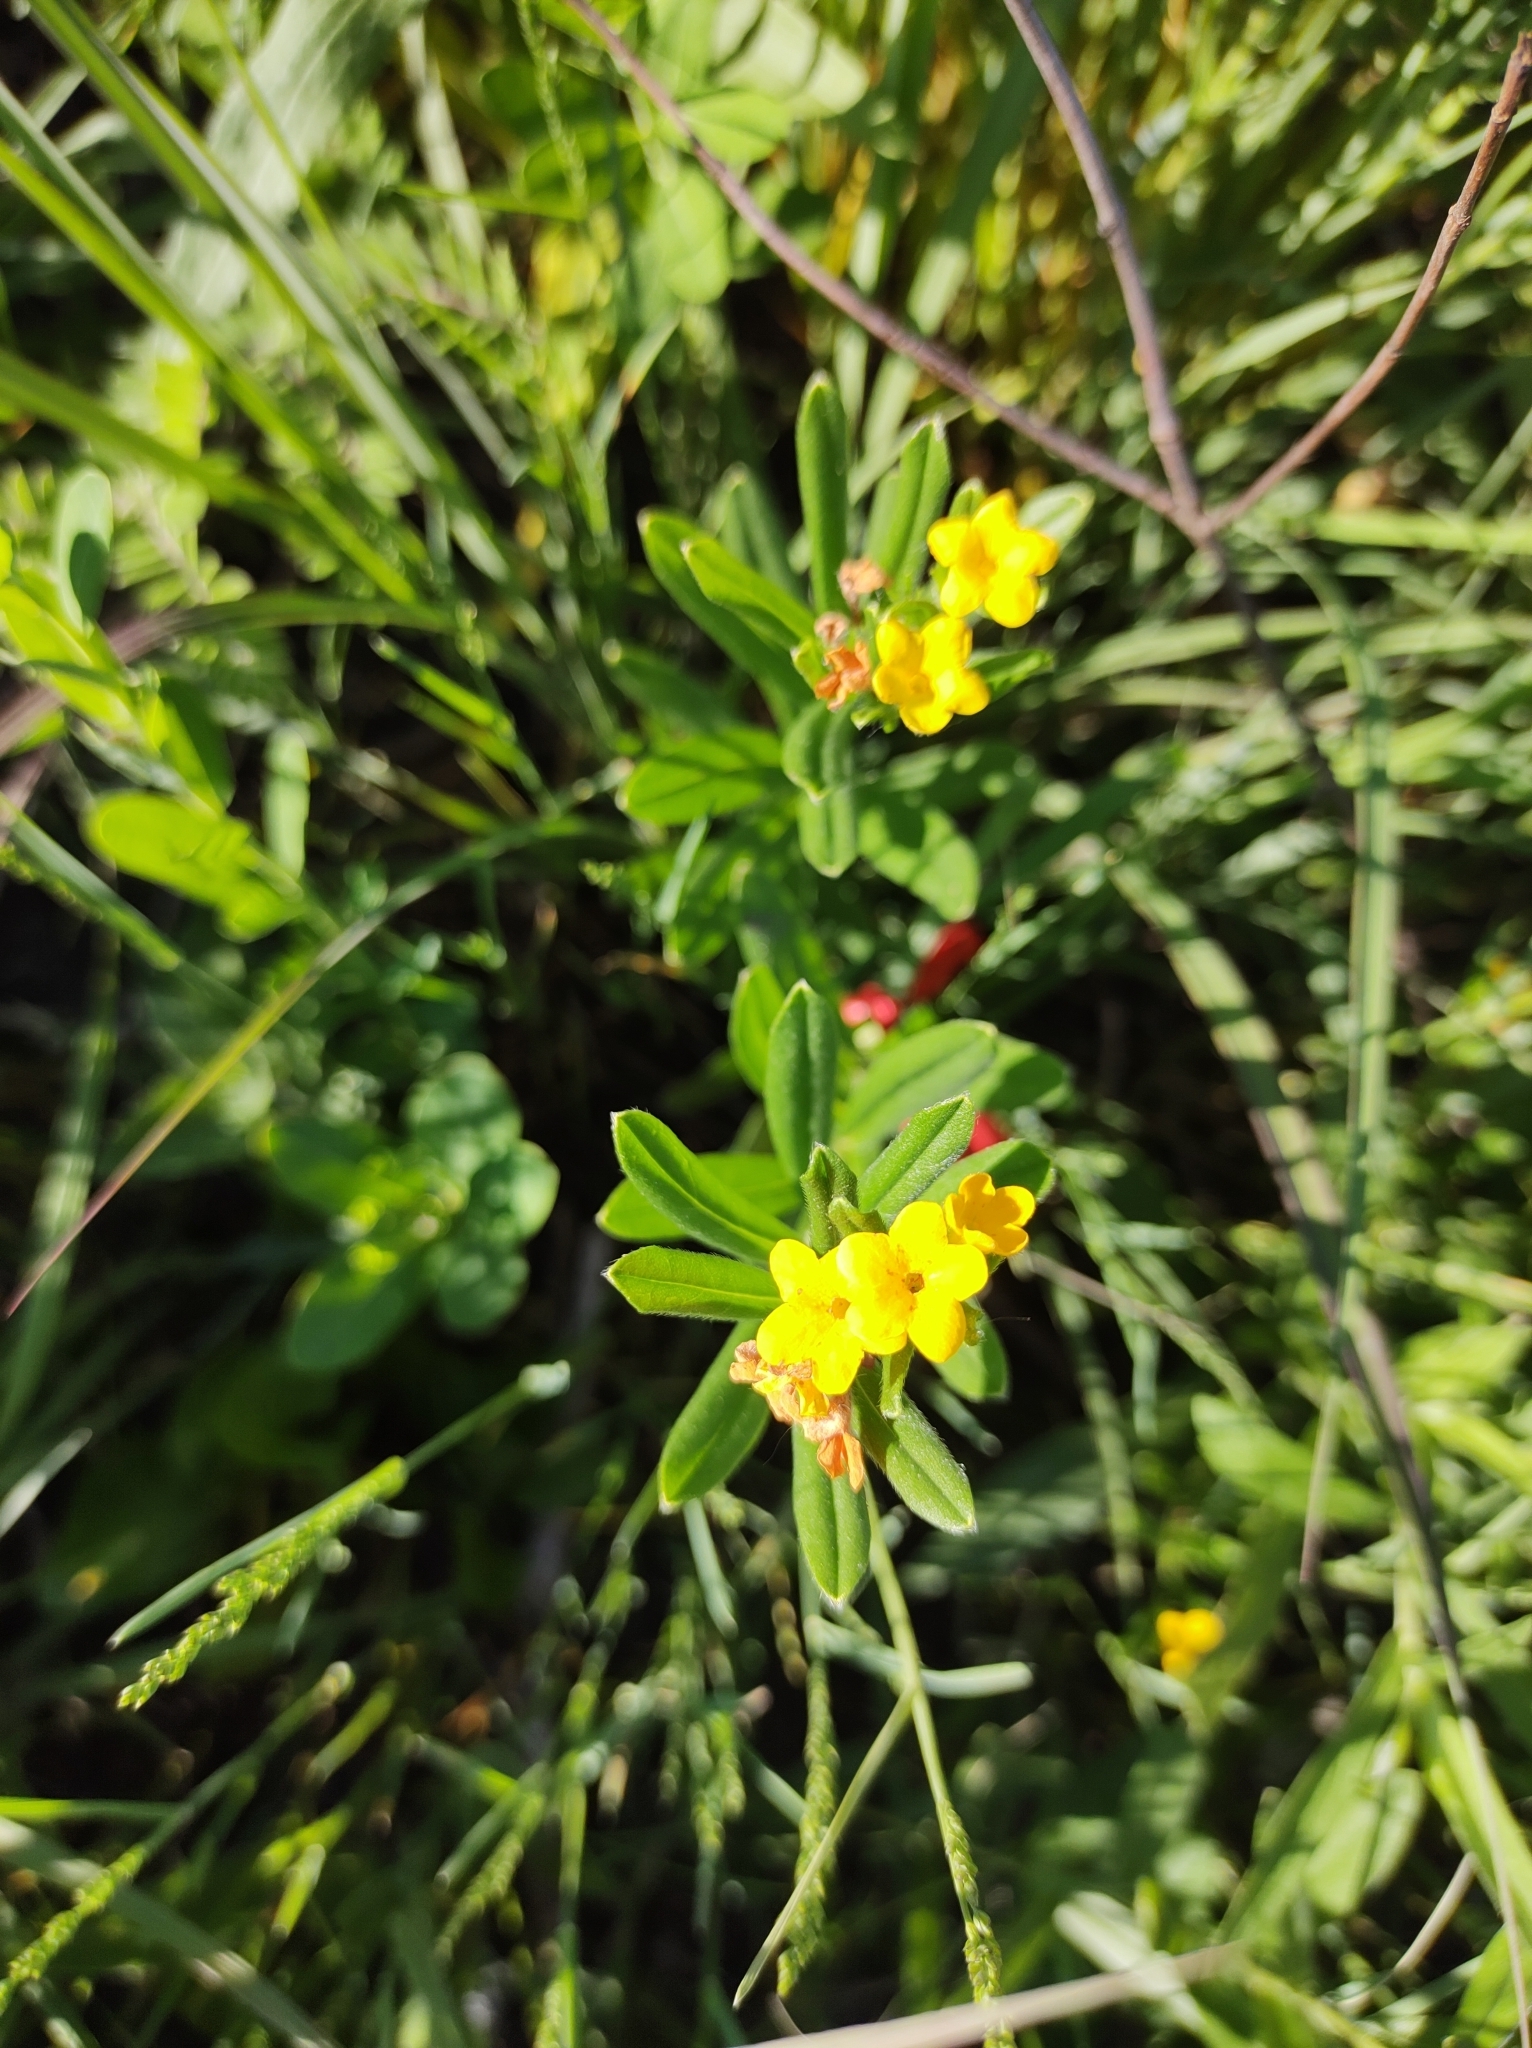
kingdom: Plantae
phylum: Tracheophyta
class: Magnoliopsida
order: Boraginales
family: Boraginaceae
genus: Lithospermum
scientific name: Lithospermum canescens
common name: Hoary puccoon
